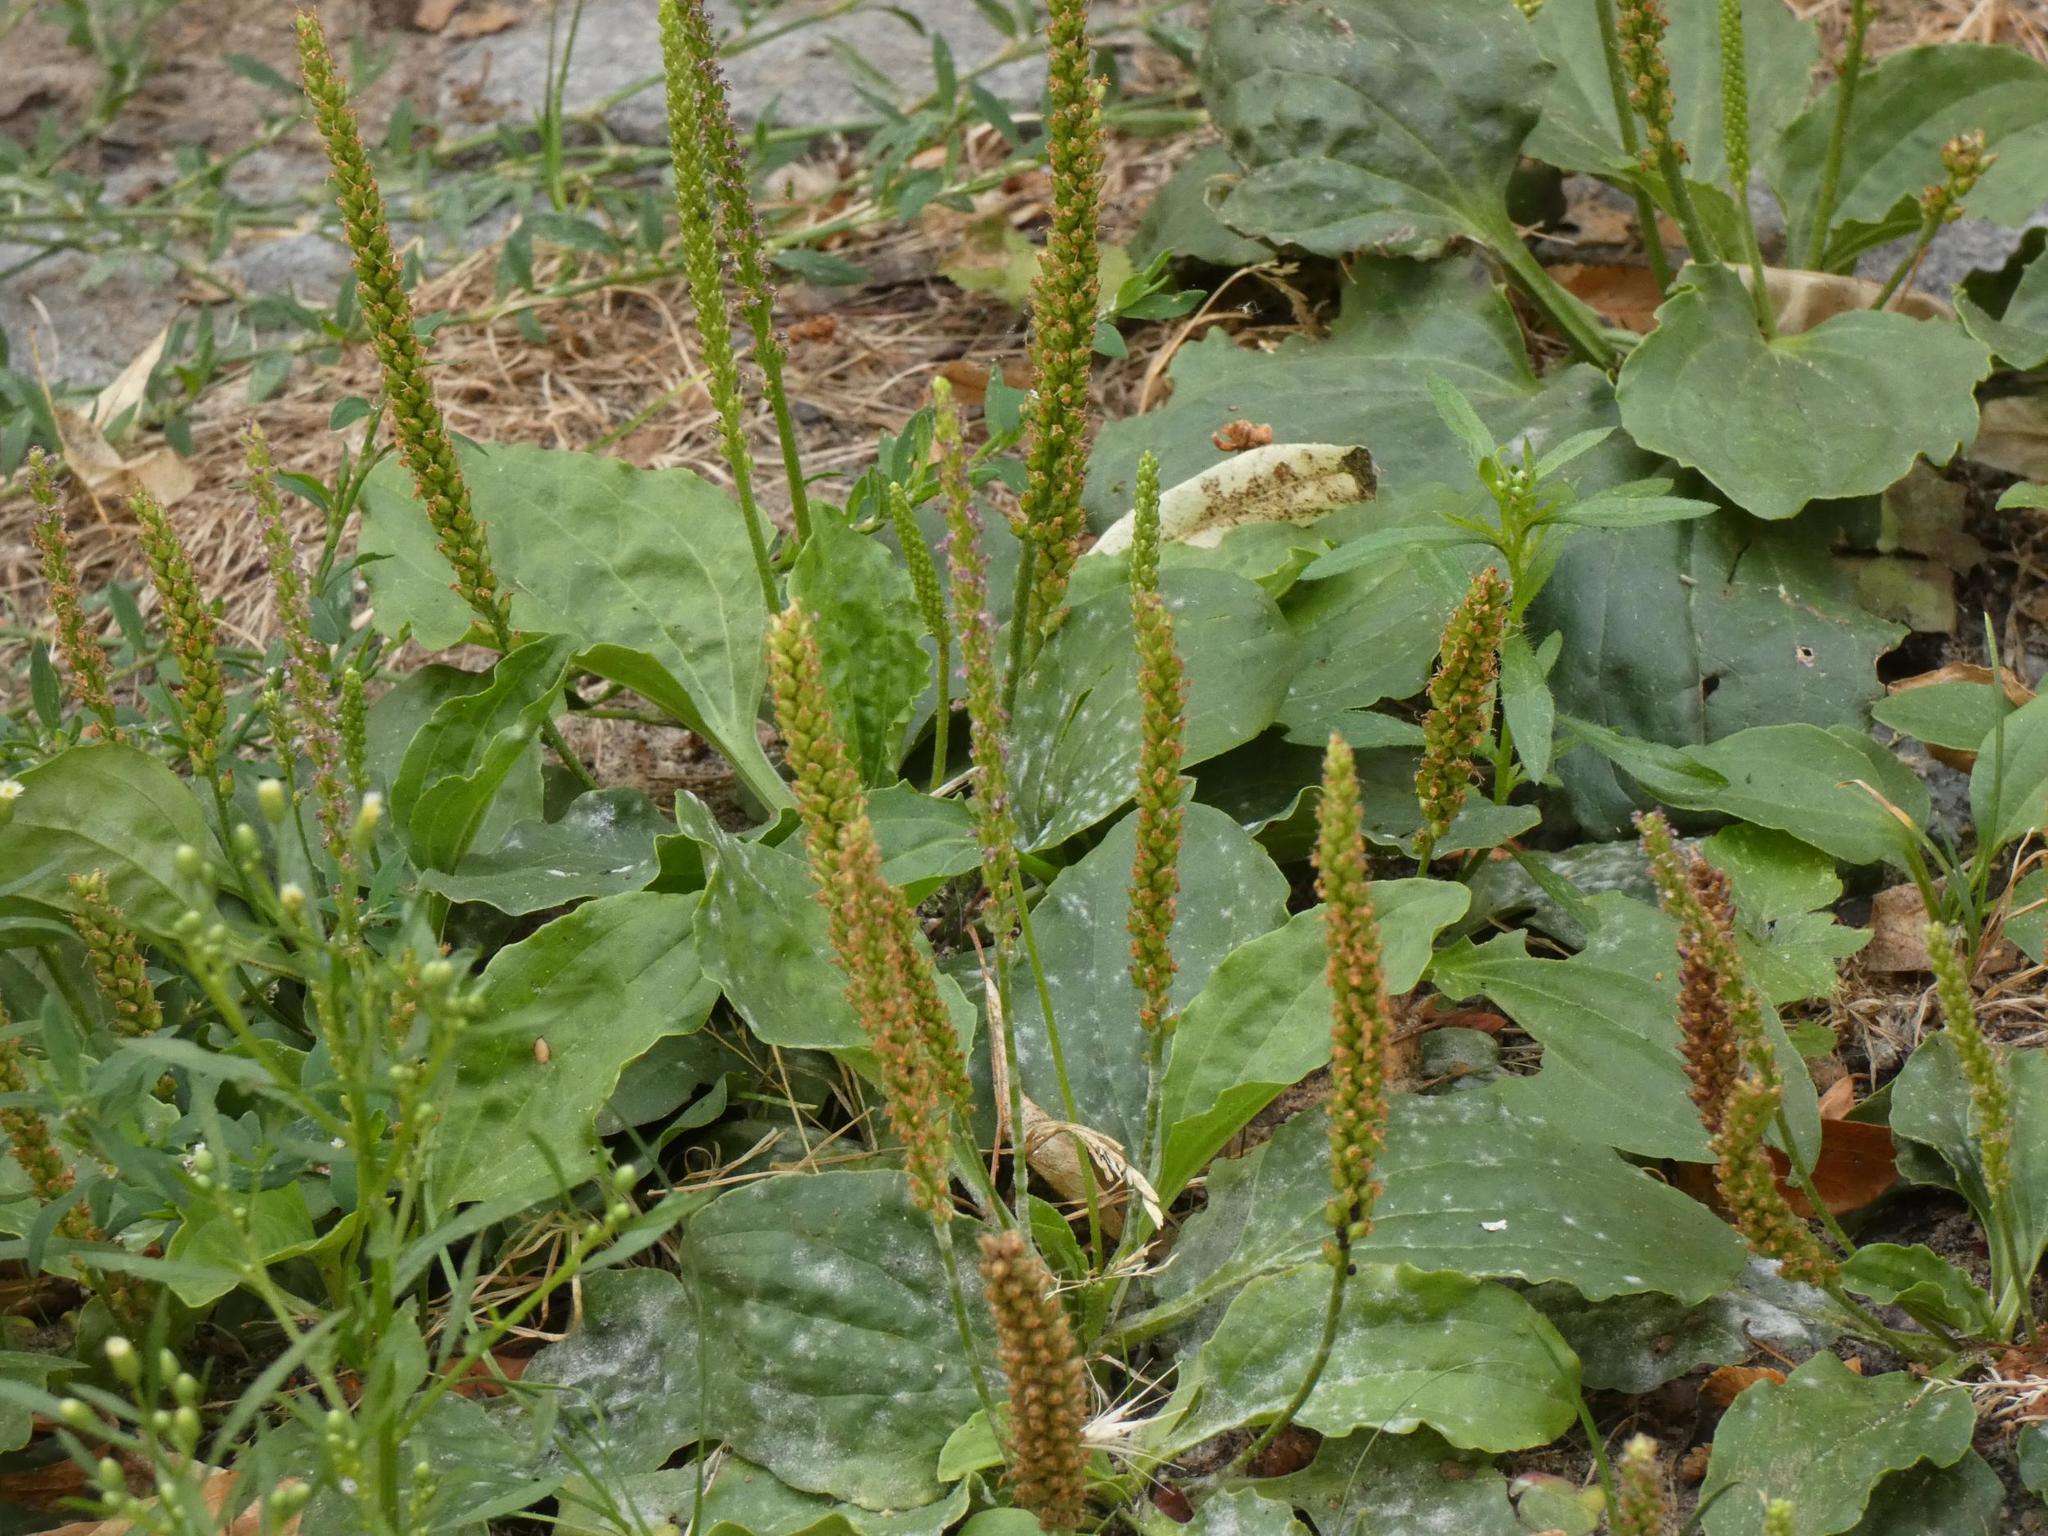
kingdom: Plantae
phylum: Tracheophyta
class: Magnoliopsida
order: Lamiales
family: Plantaginaceae
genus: Plantago
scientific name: Plantago major
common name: Common plantain
